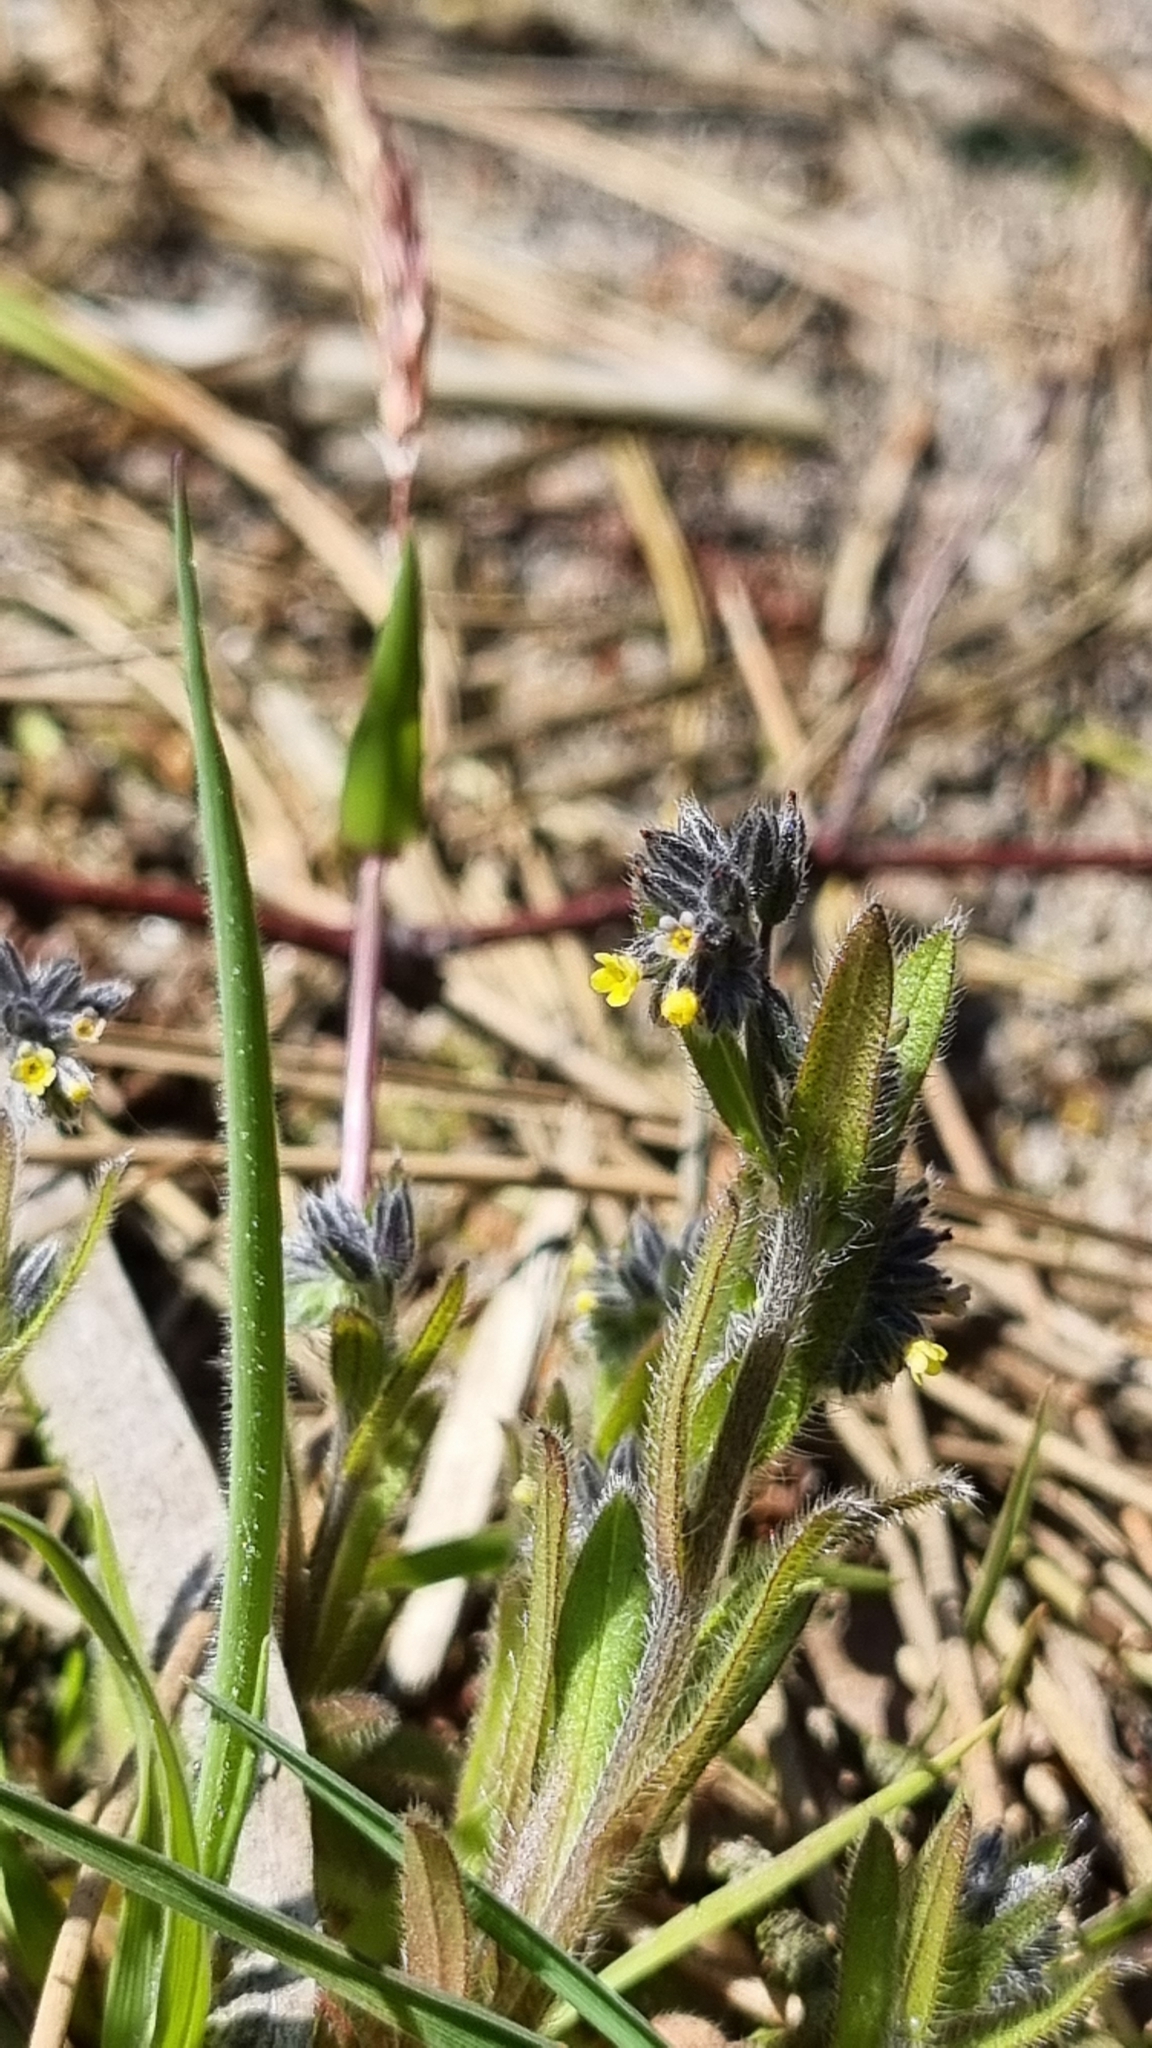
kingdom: Plantae
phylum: Tracheophyta
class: Magnoliopsida
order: Boraginales
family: Boraginaceae
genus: Myosotis
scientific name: Myosotis discolor
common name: Changing forget-me-not
